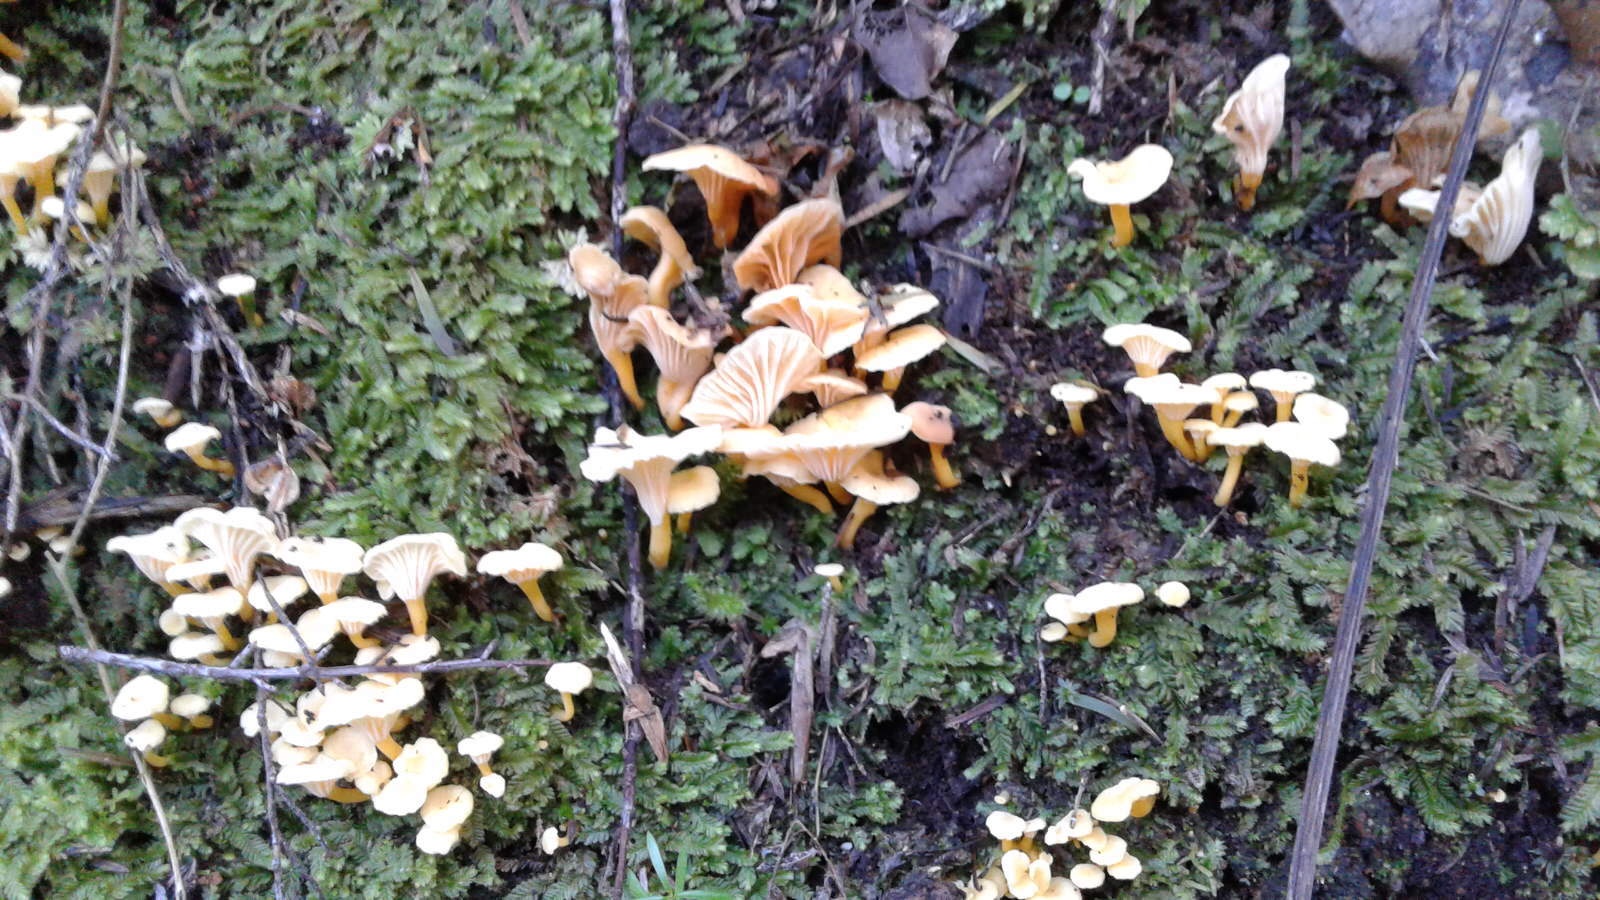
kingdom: Fungi
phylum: Basidiomycota
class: Agaricomycetes
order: Cantharellales
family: Hydnaceae
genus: Cantharellus
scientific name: Cantharellus wellingtonensis
